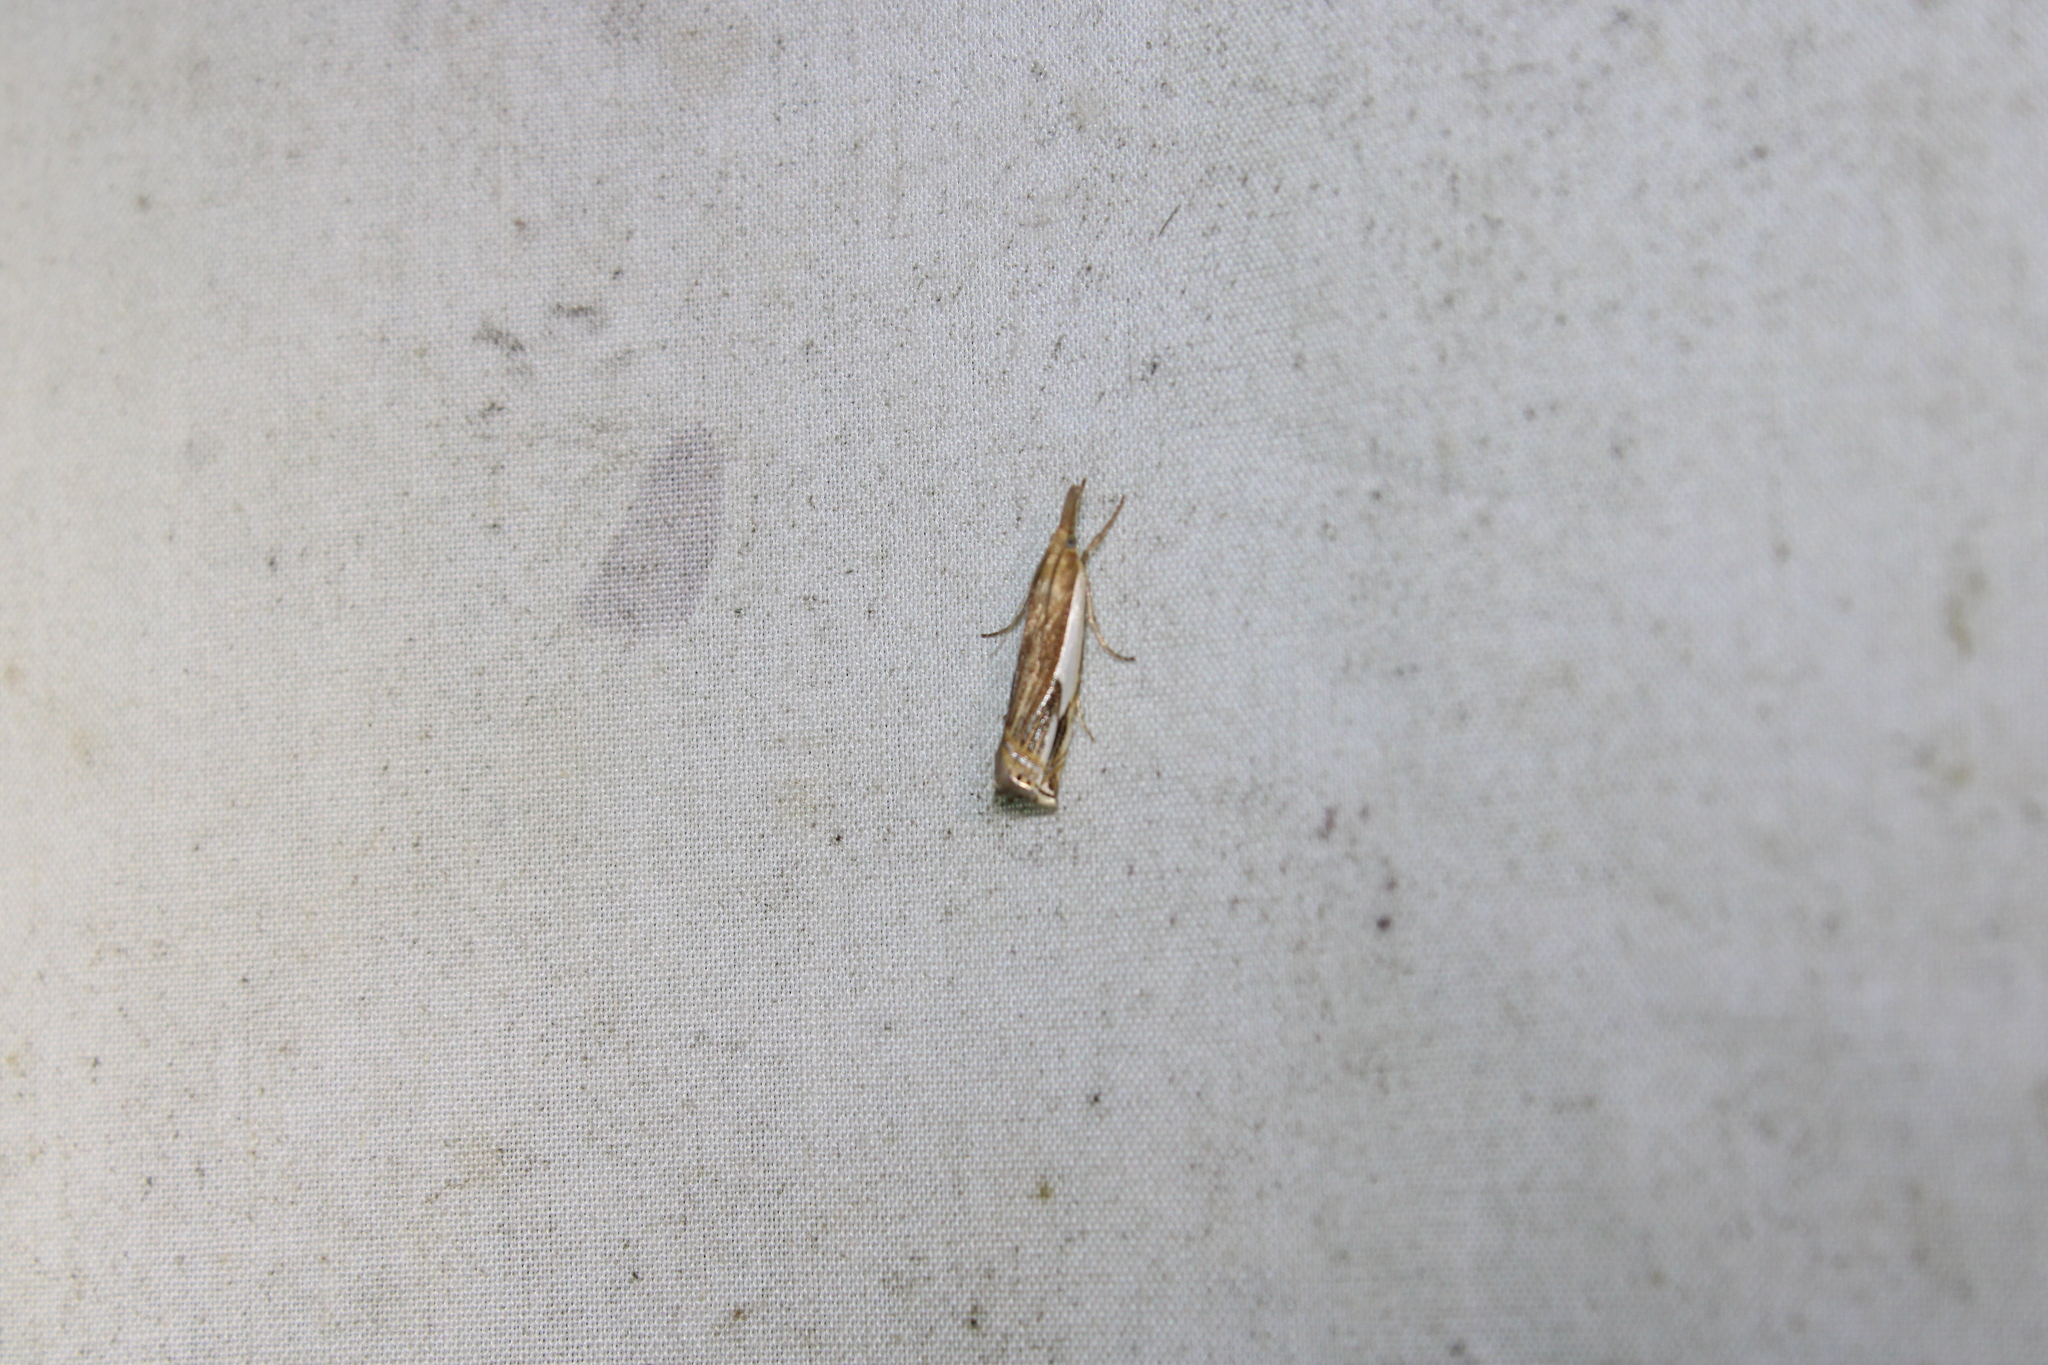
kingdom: Animalia
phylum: Arthropoda
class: Insecta
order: Lepidoptera
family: Crambidae
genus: Crambus
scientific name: Crambus agitatellus
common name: Double-banded grass-veneer
